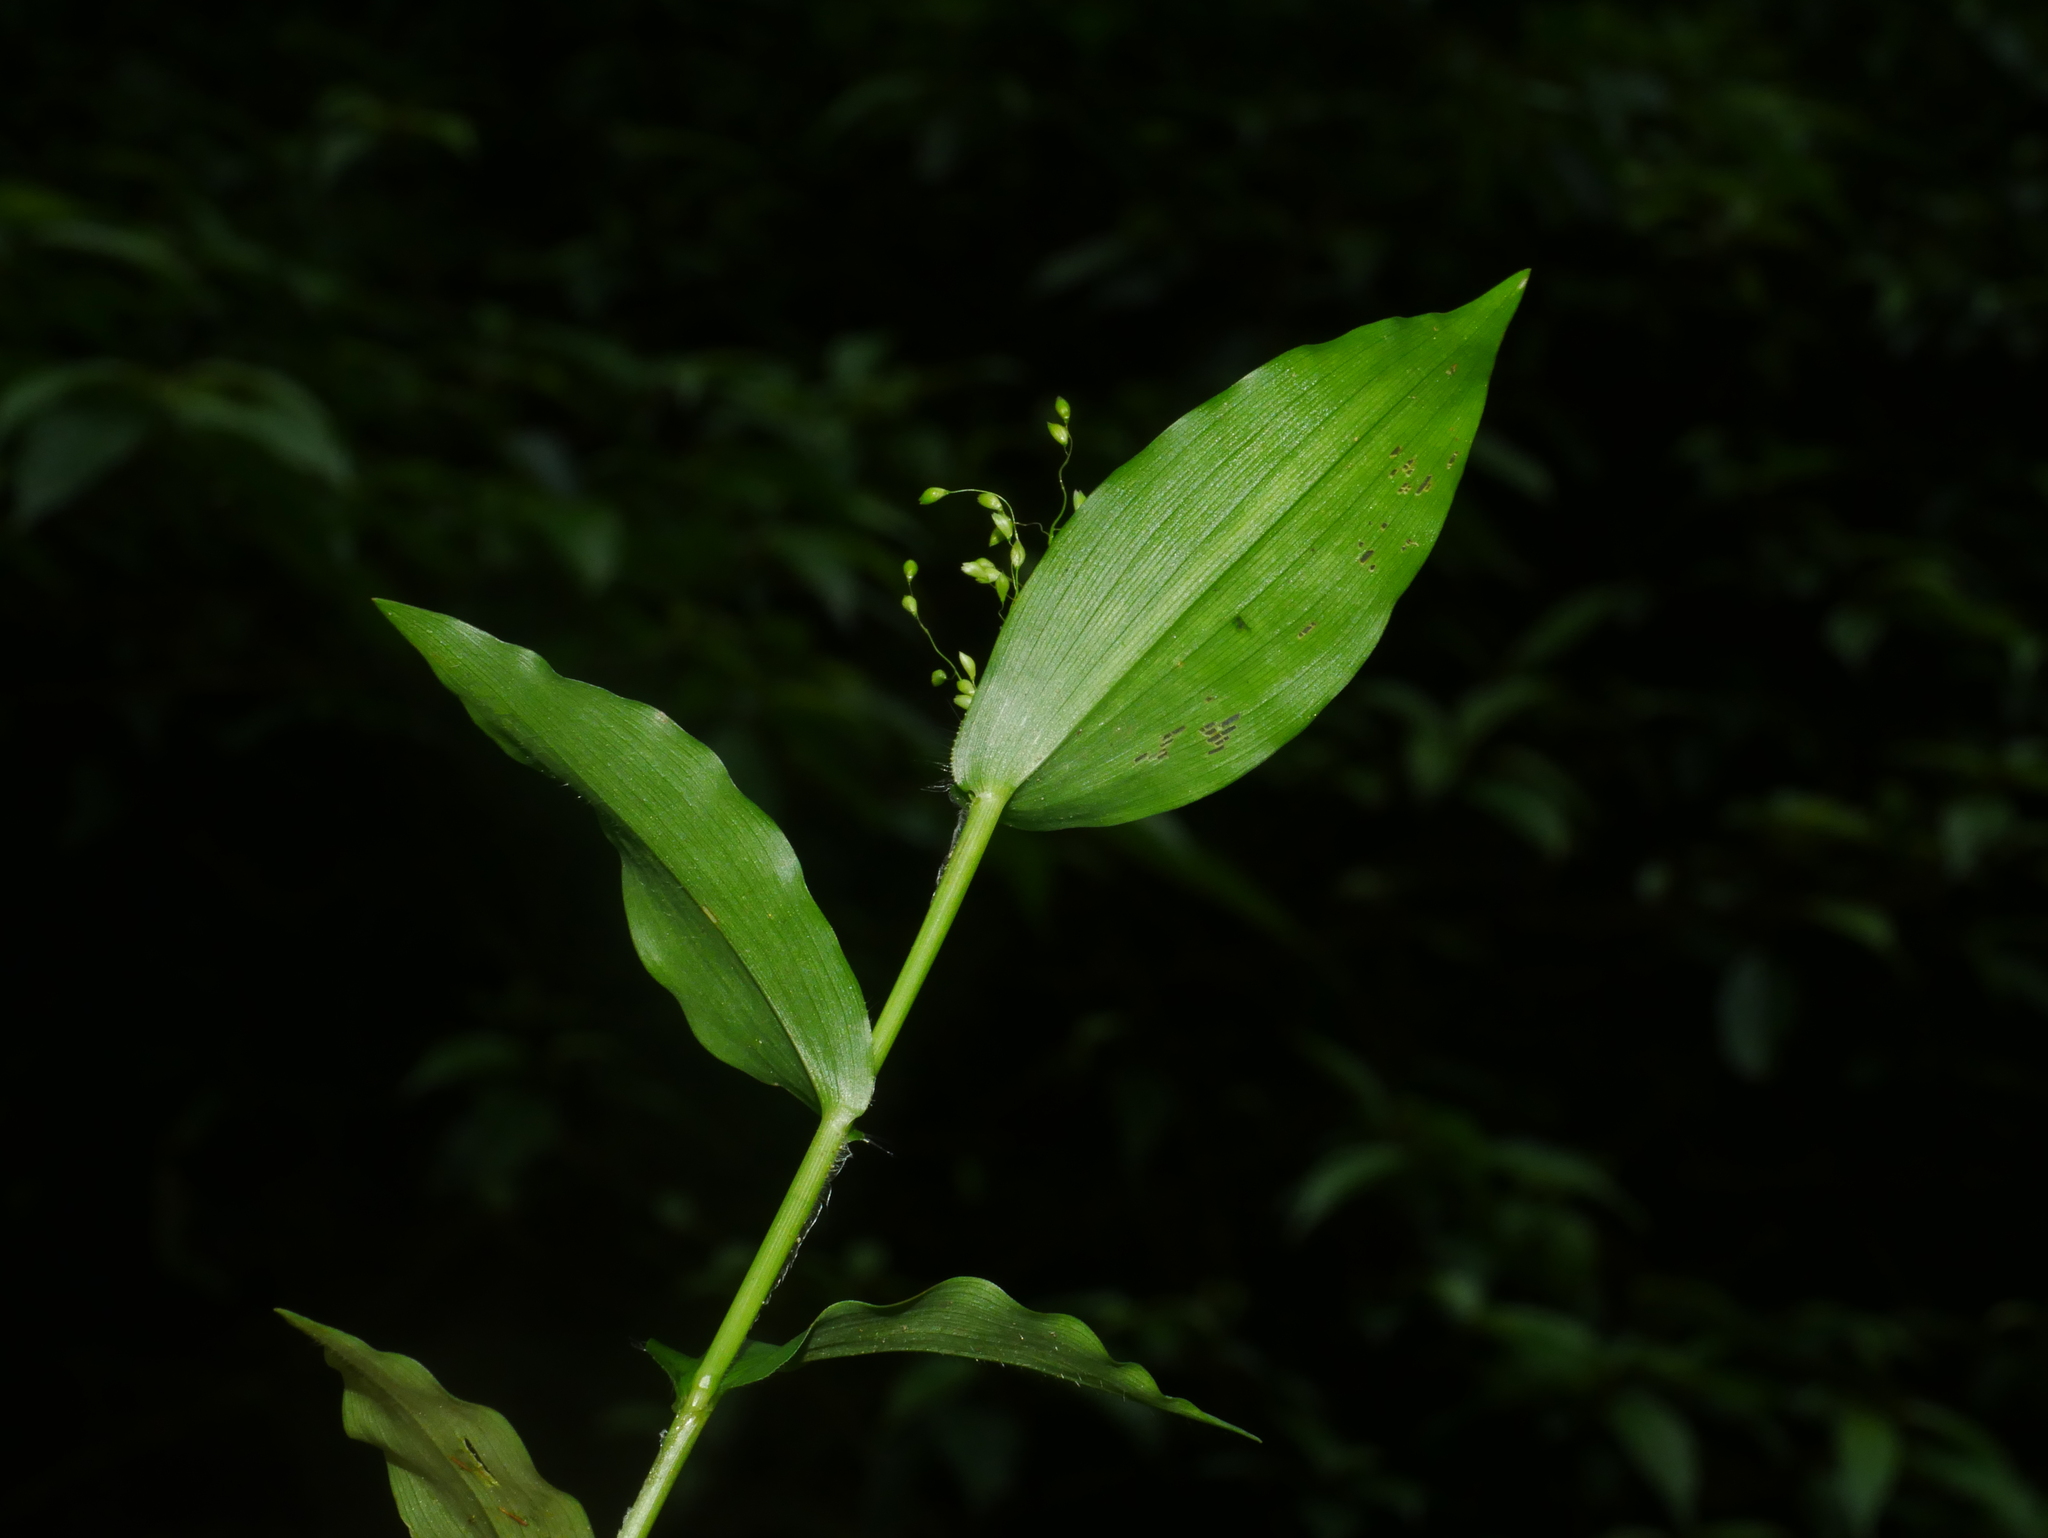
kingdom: Plantae
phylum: Tracheophyta
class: Liliopsida
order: Poales
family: Poaceae
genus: Panicum
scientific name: Panicum brevifolium
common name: Shortleaf panic grass
